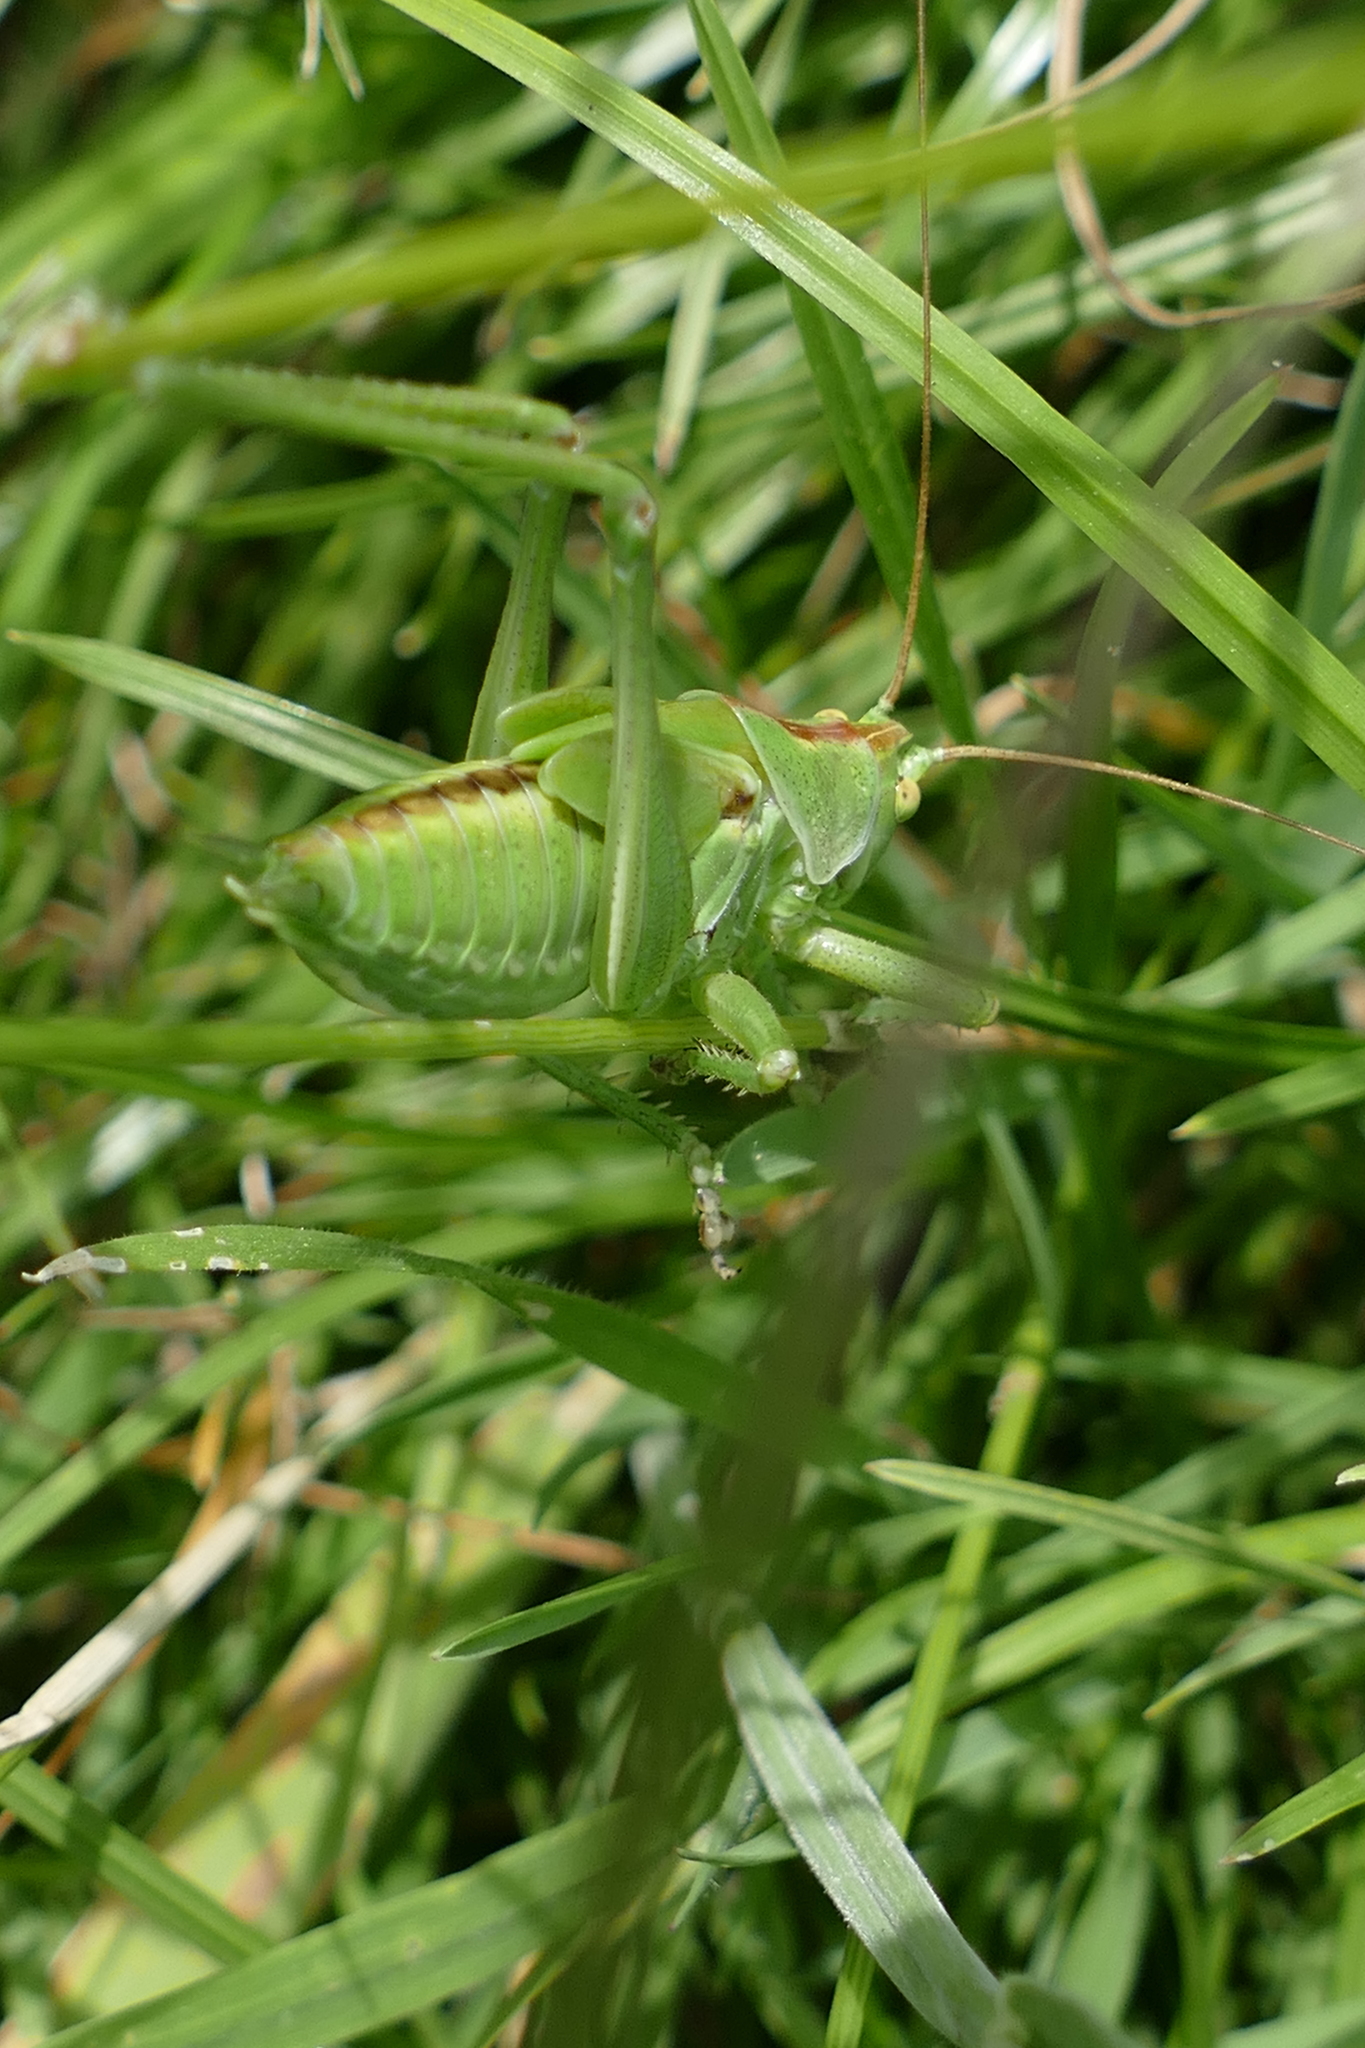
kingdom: Animalia
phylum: Arthropoda
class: Insecta
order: Orthoptera
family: Tettigoniidae
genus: Tettigonia
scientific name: Tettigonia viridissima
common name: Great green bush-cricket
